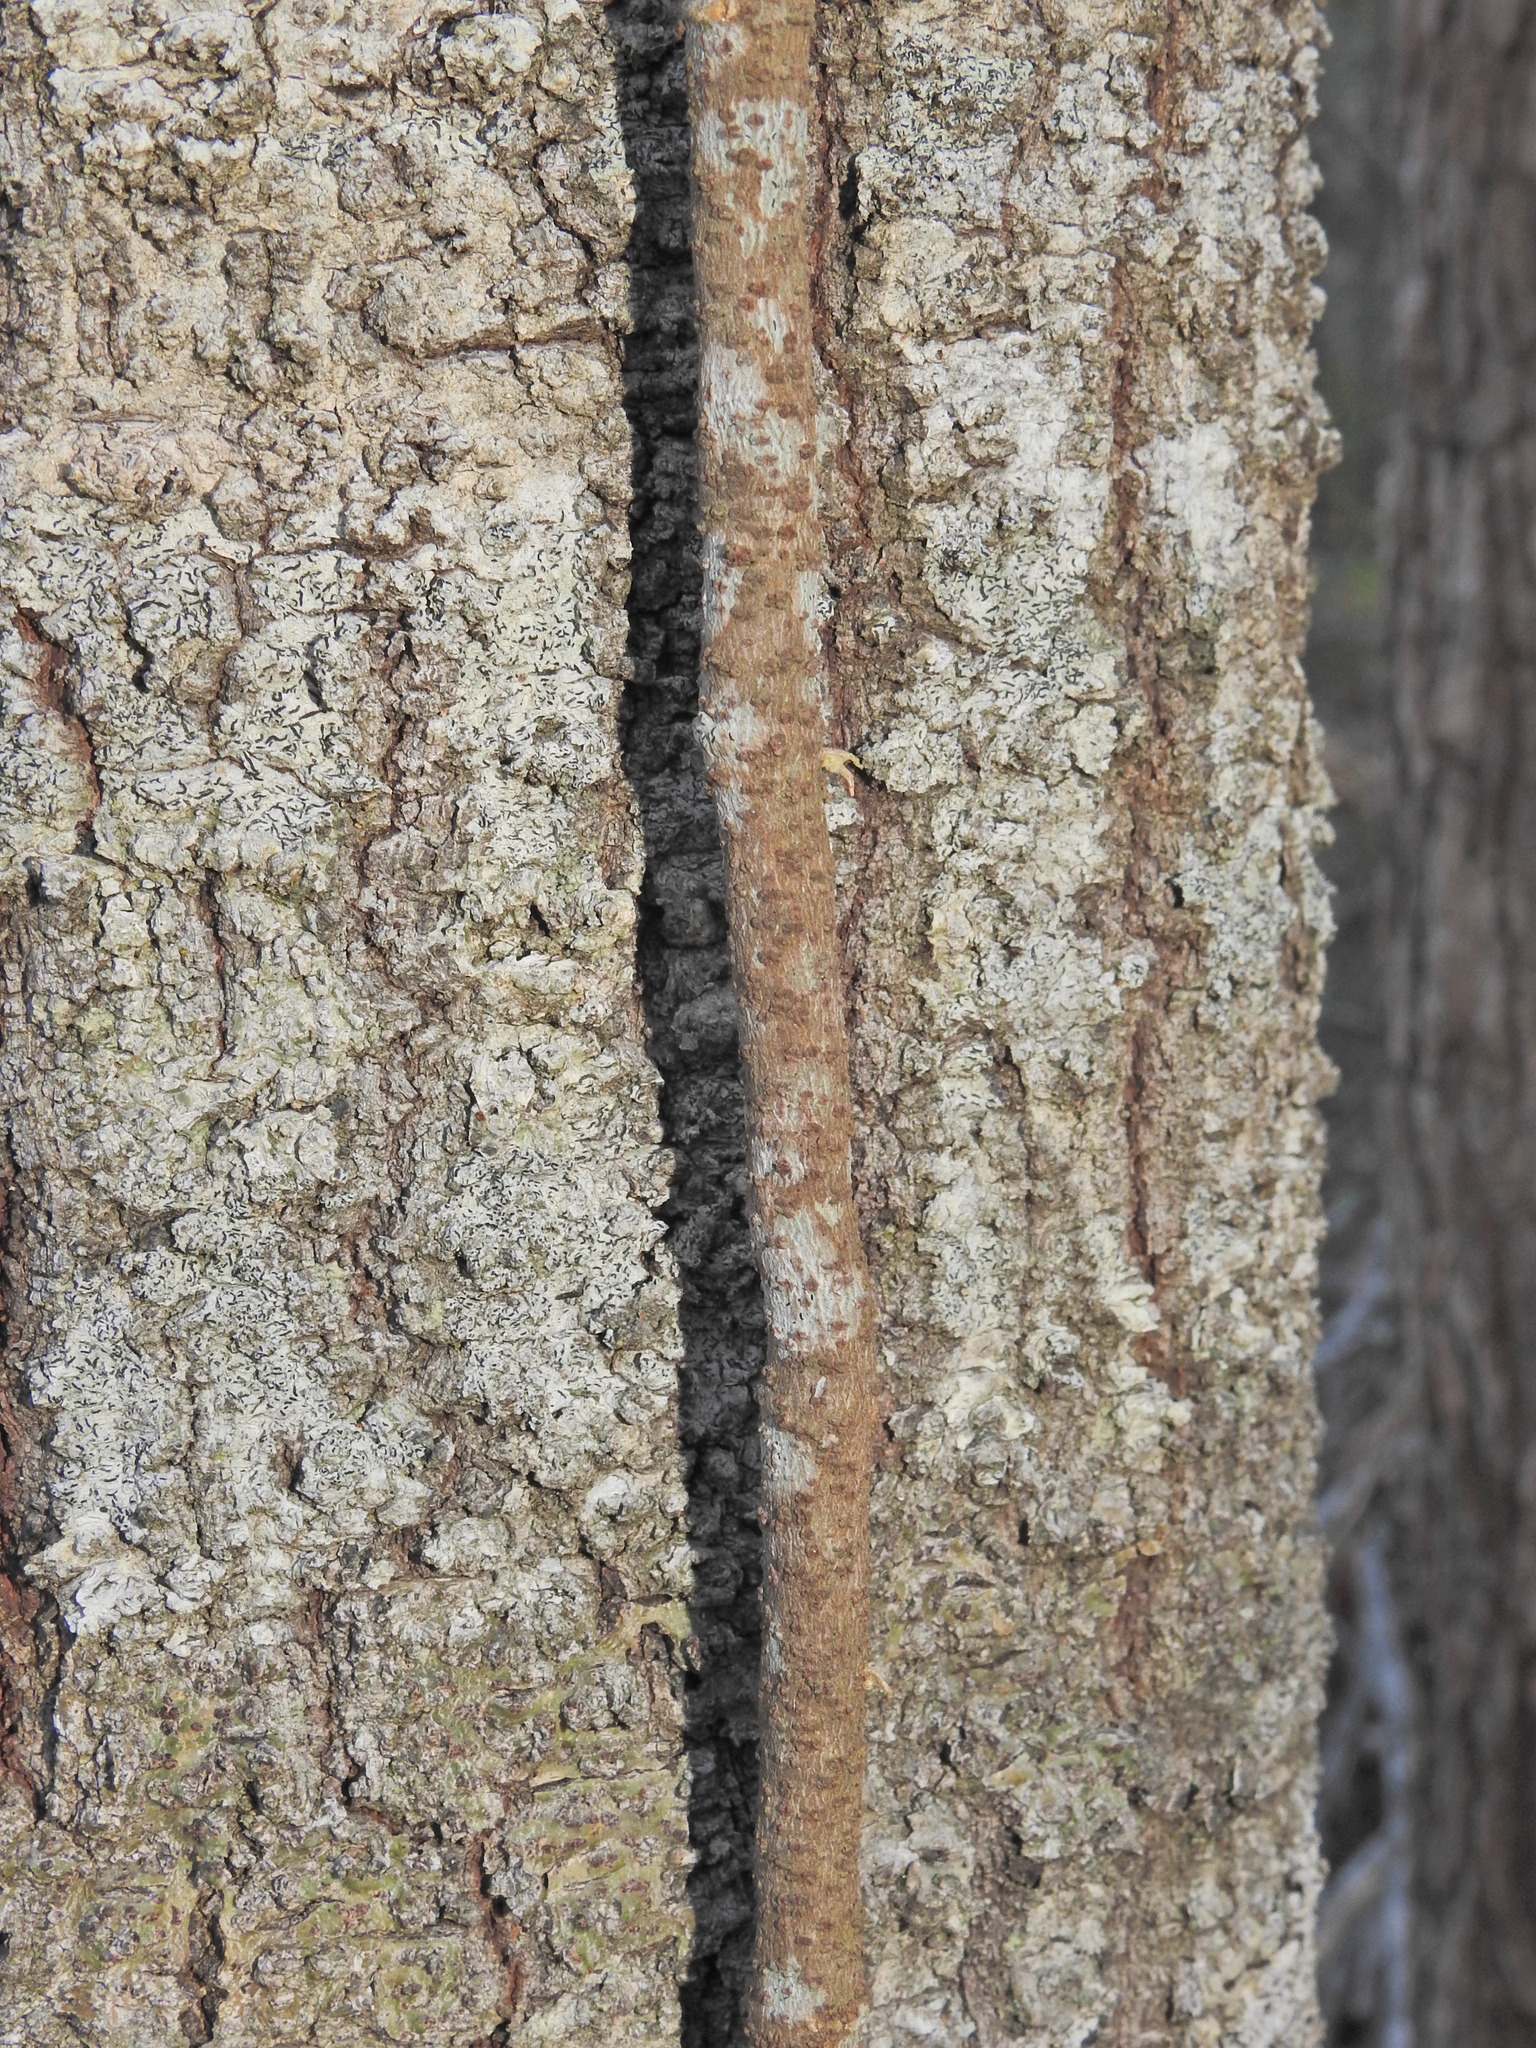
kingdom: Plantae
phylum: Tracheophyta
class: Magnoliopsida
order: Gentianales
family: Apocynaceae
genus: Parsonsia
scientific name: Parsonsia straminea
